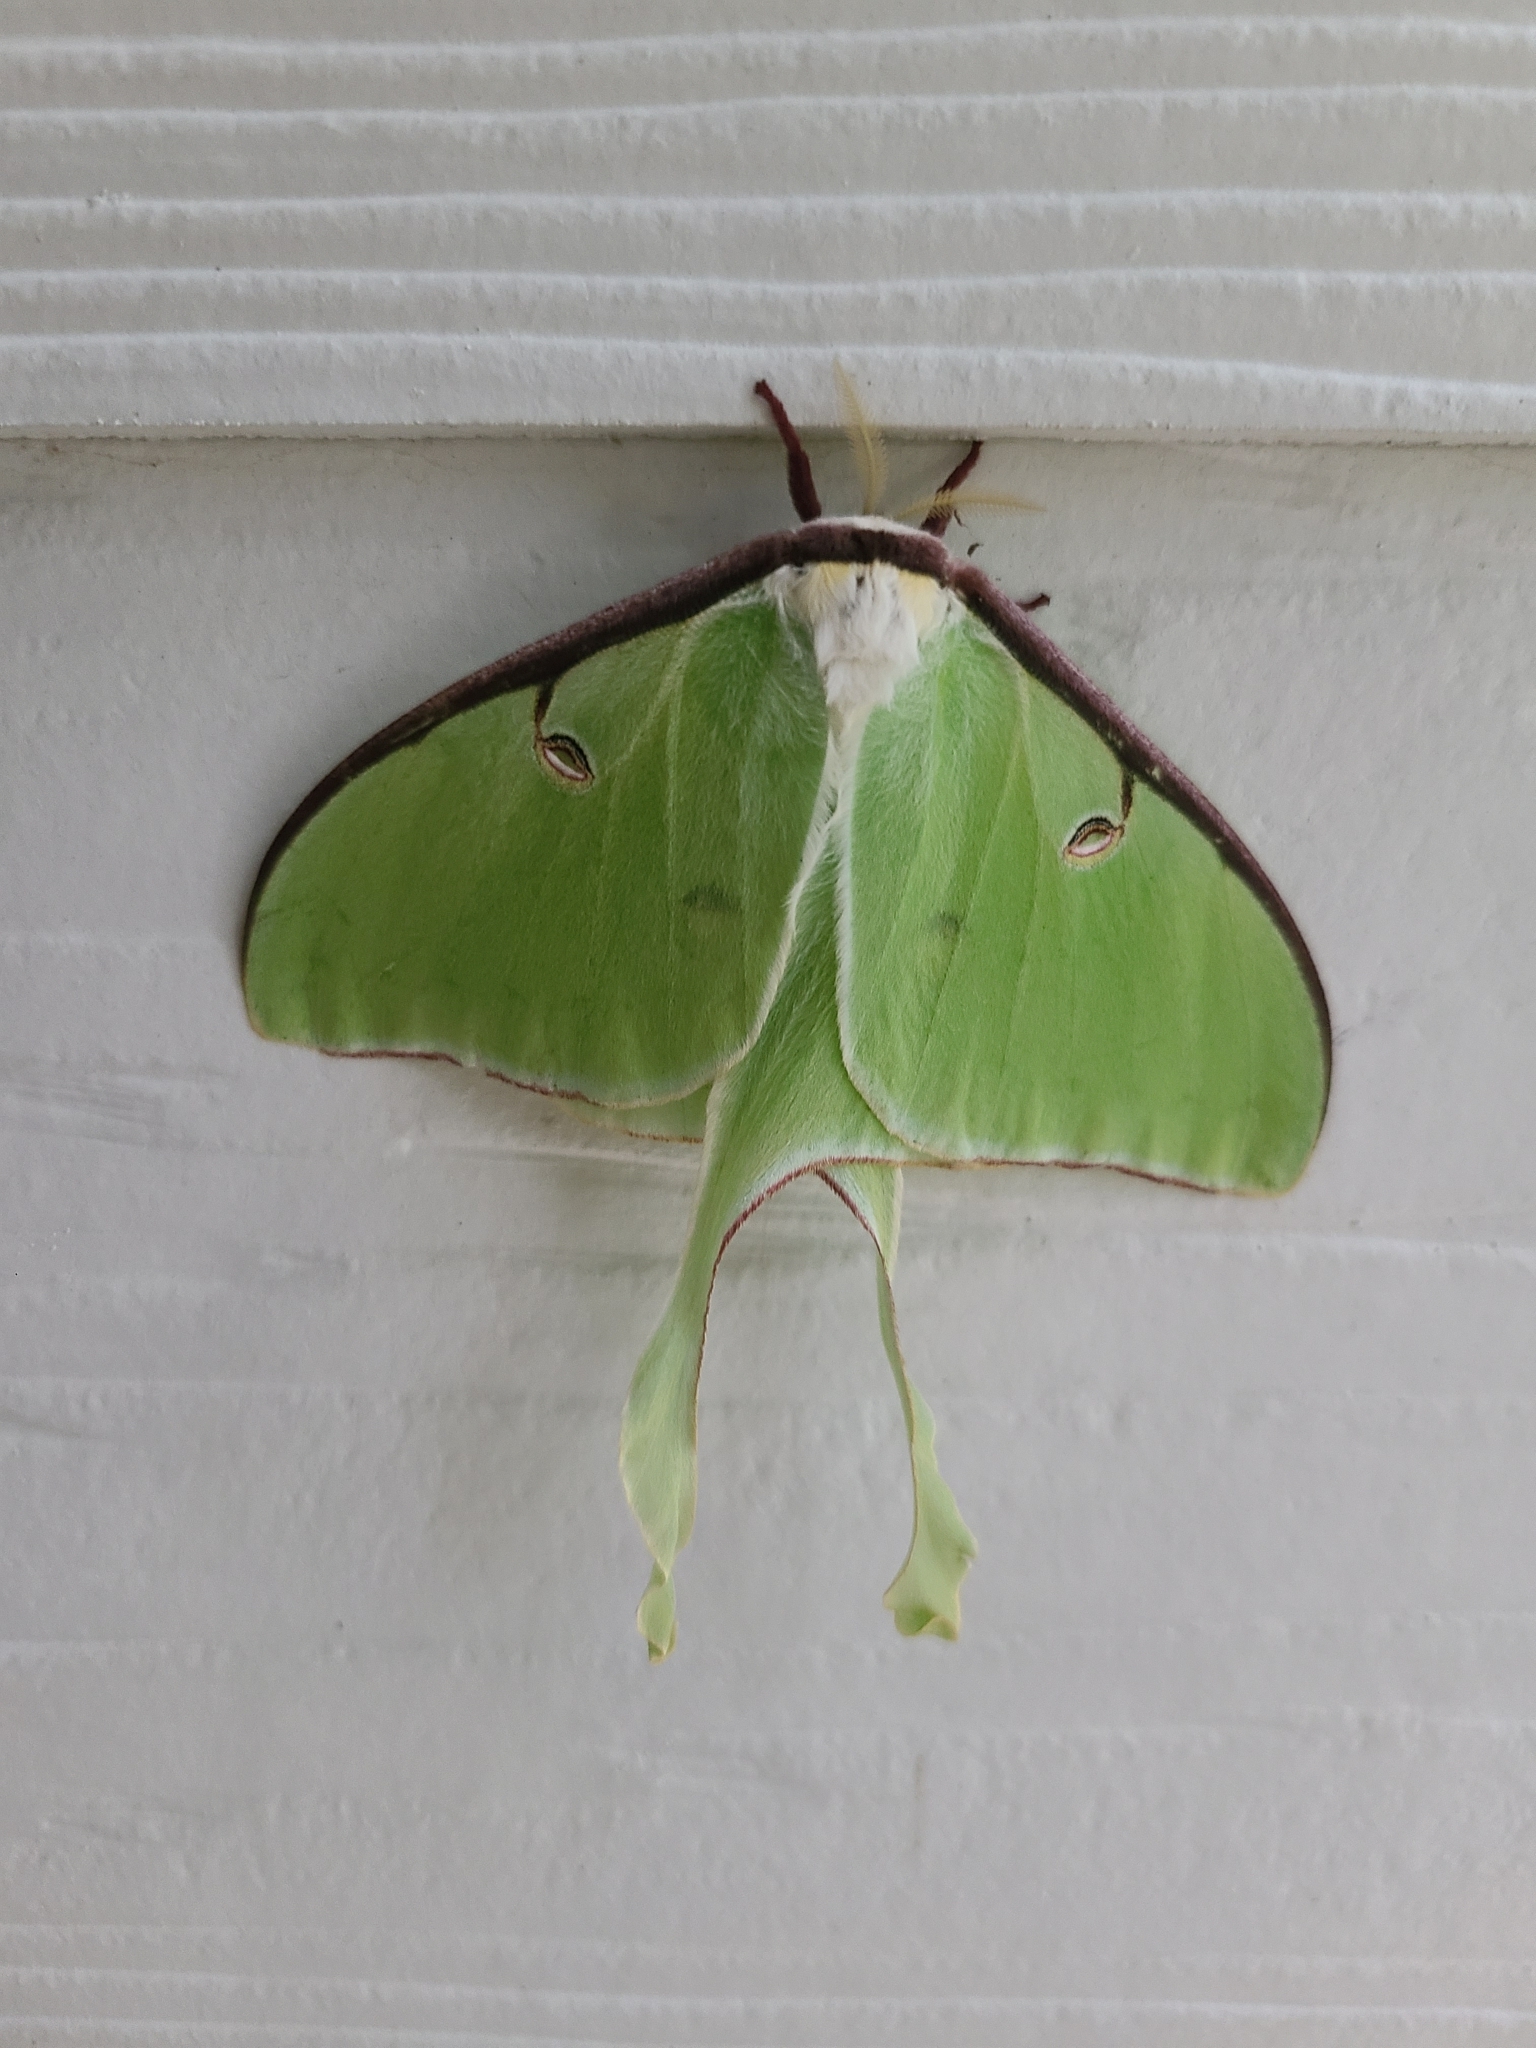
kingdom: Animalia
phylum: Arthropoda
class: Insecta
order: Lepidoptera
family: Saturniidae
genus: Actias
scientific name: Actias luna
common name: Luna moth
